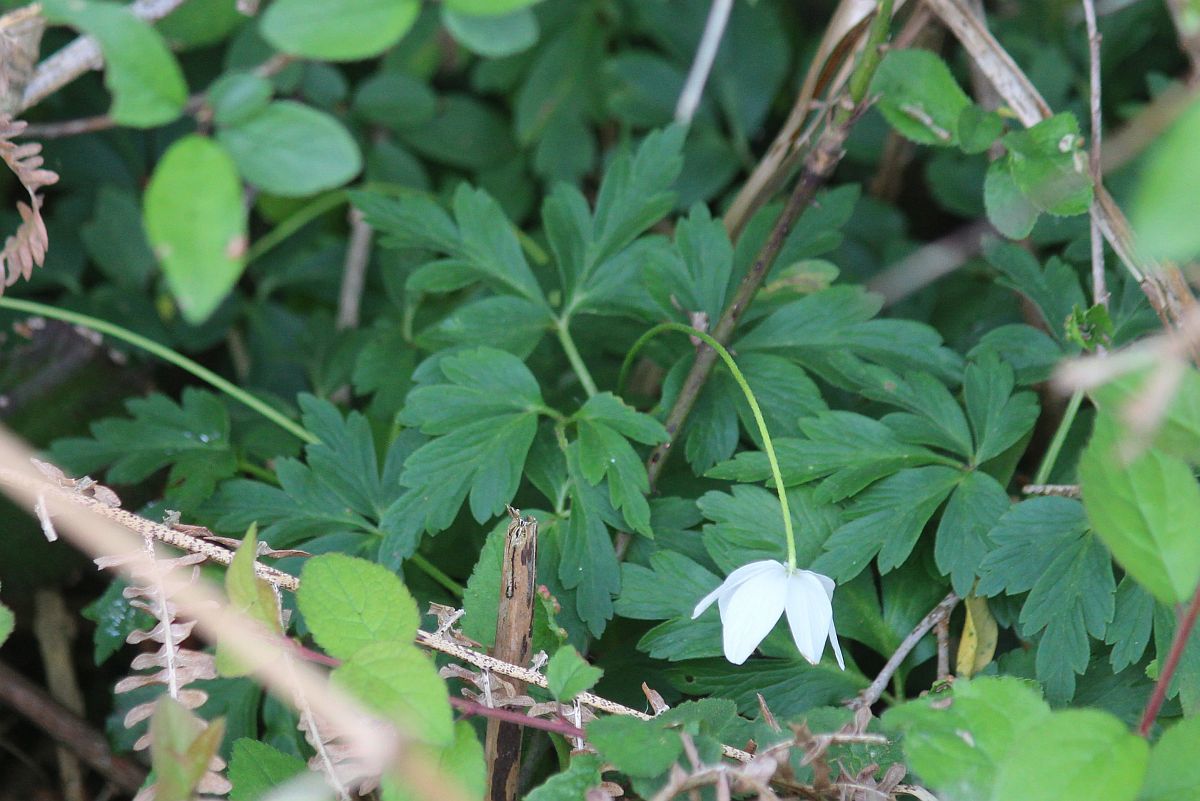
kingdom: Plantae
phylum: Tracheophyta
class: Magnoliopsida
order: Ranunculales
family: Ranunculaceae
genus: Anemone
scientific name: Anemone nemorosa
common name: Wood anemone
